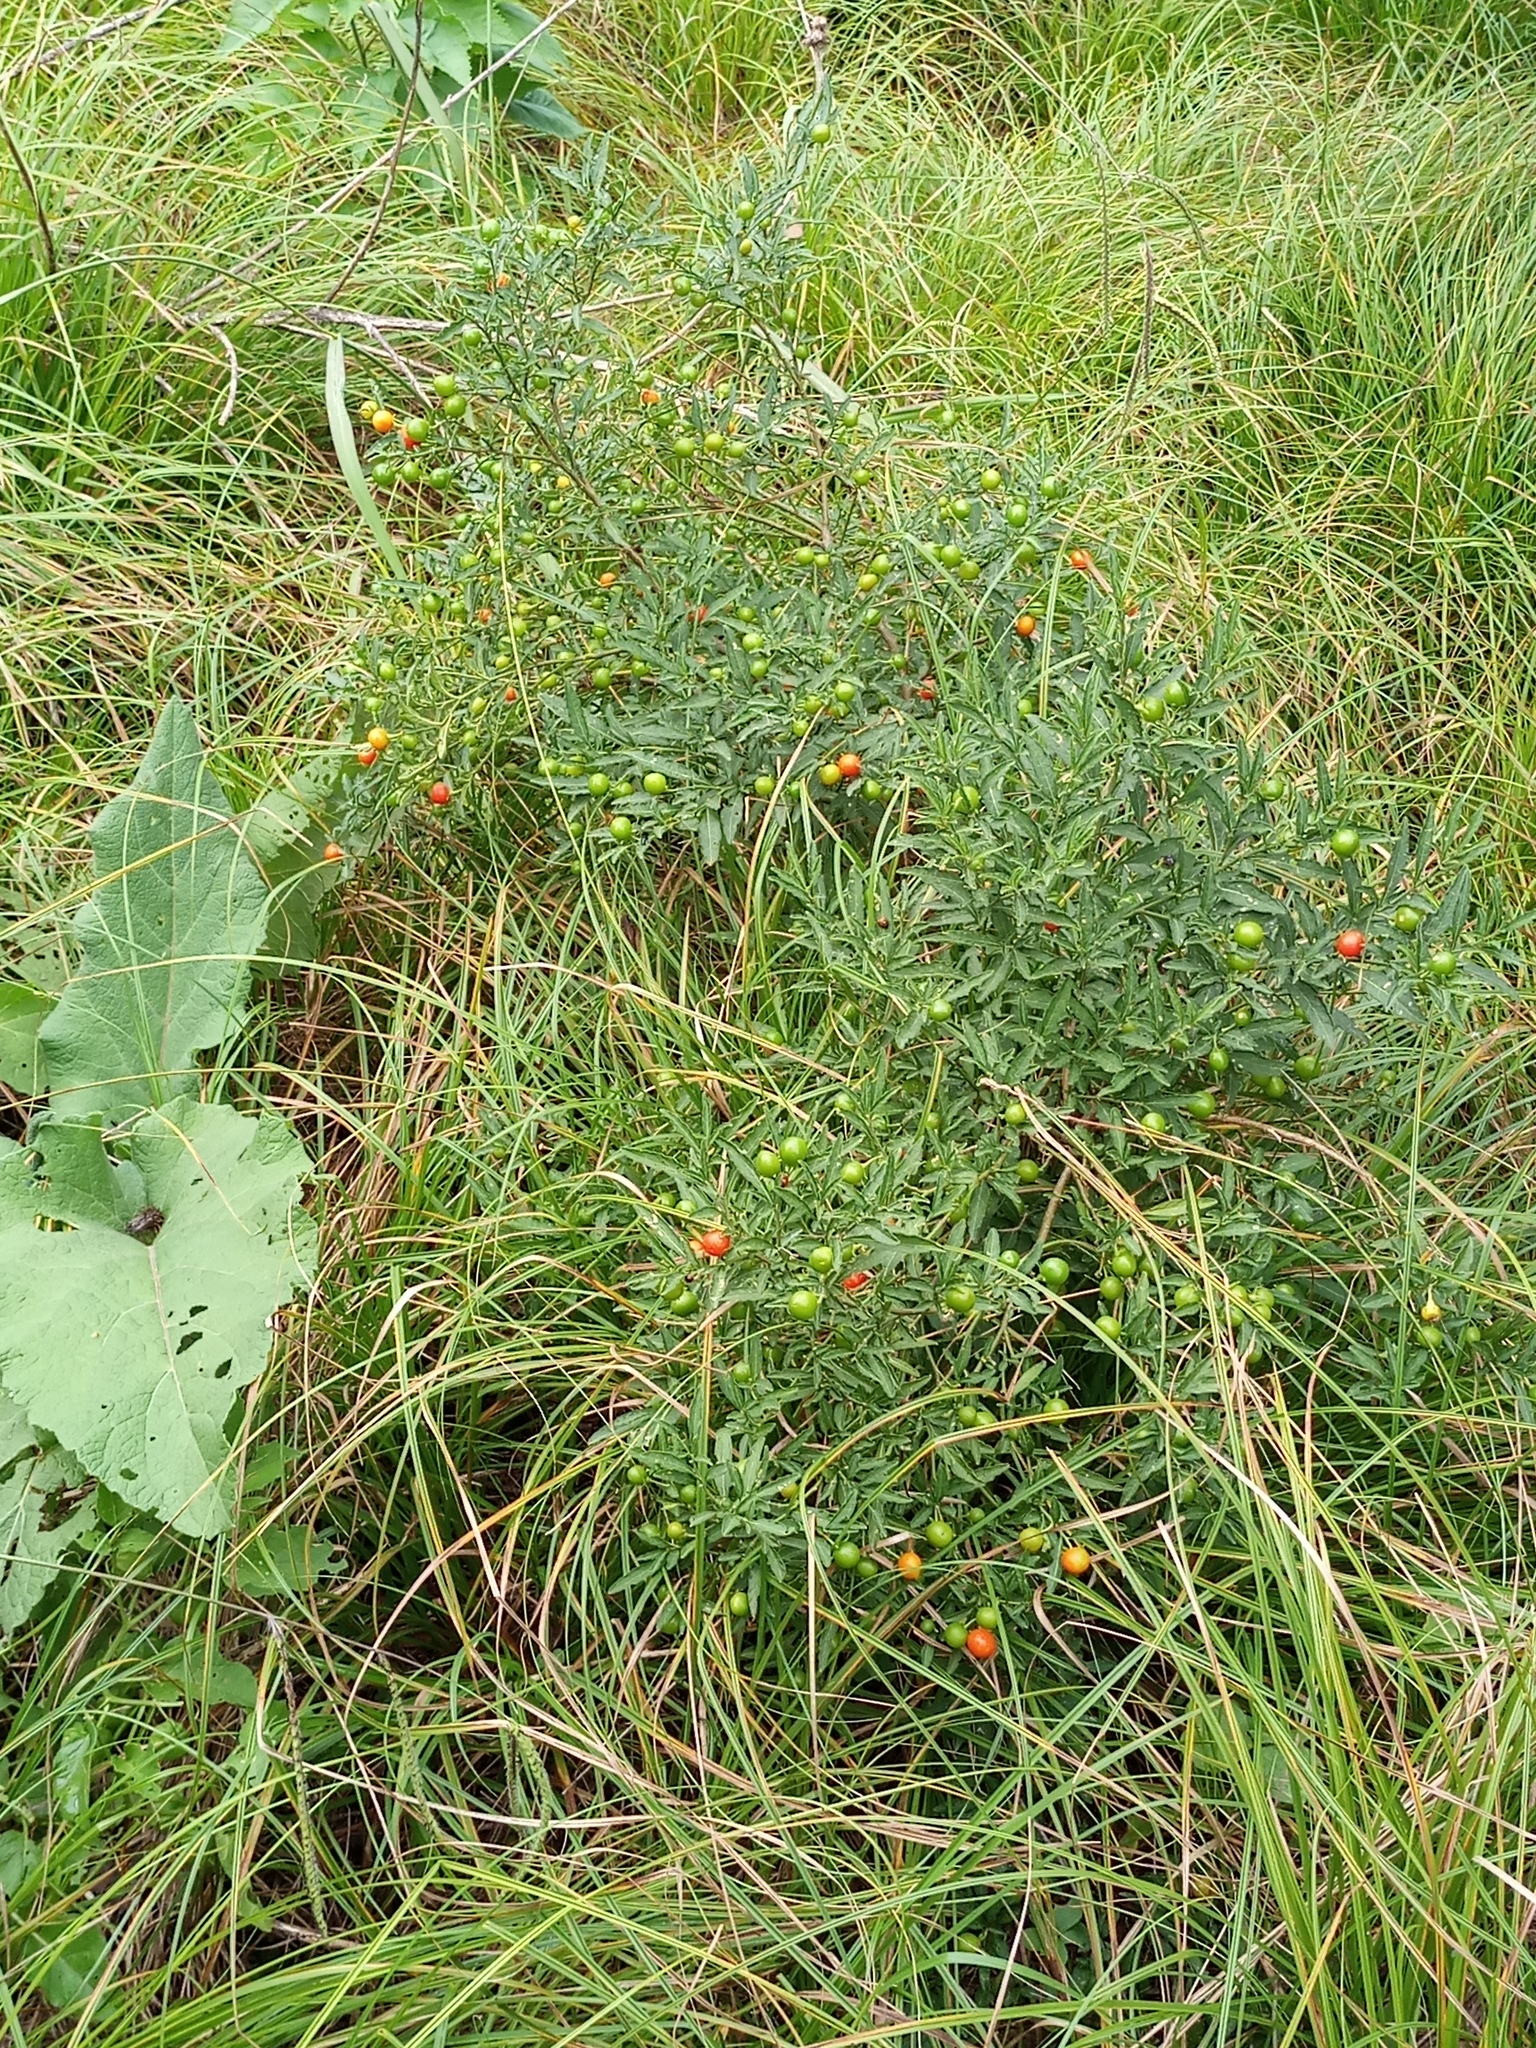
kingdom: Plantae
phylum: Tracheophyta
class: Magnoliopsida
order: Solanales
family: Solanaceae
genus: Solanum
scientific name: Solanum pseudocapsicum
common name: Jerusalem cherry
